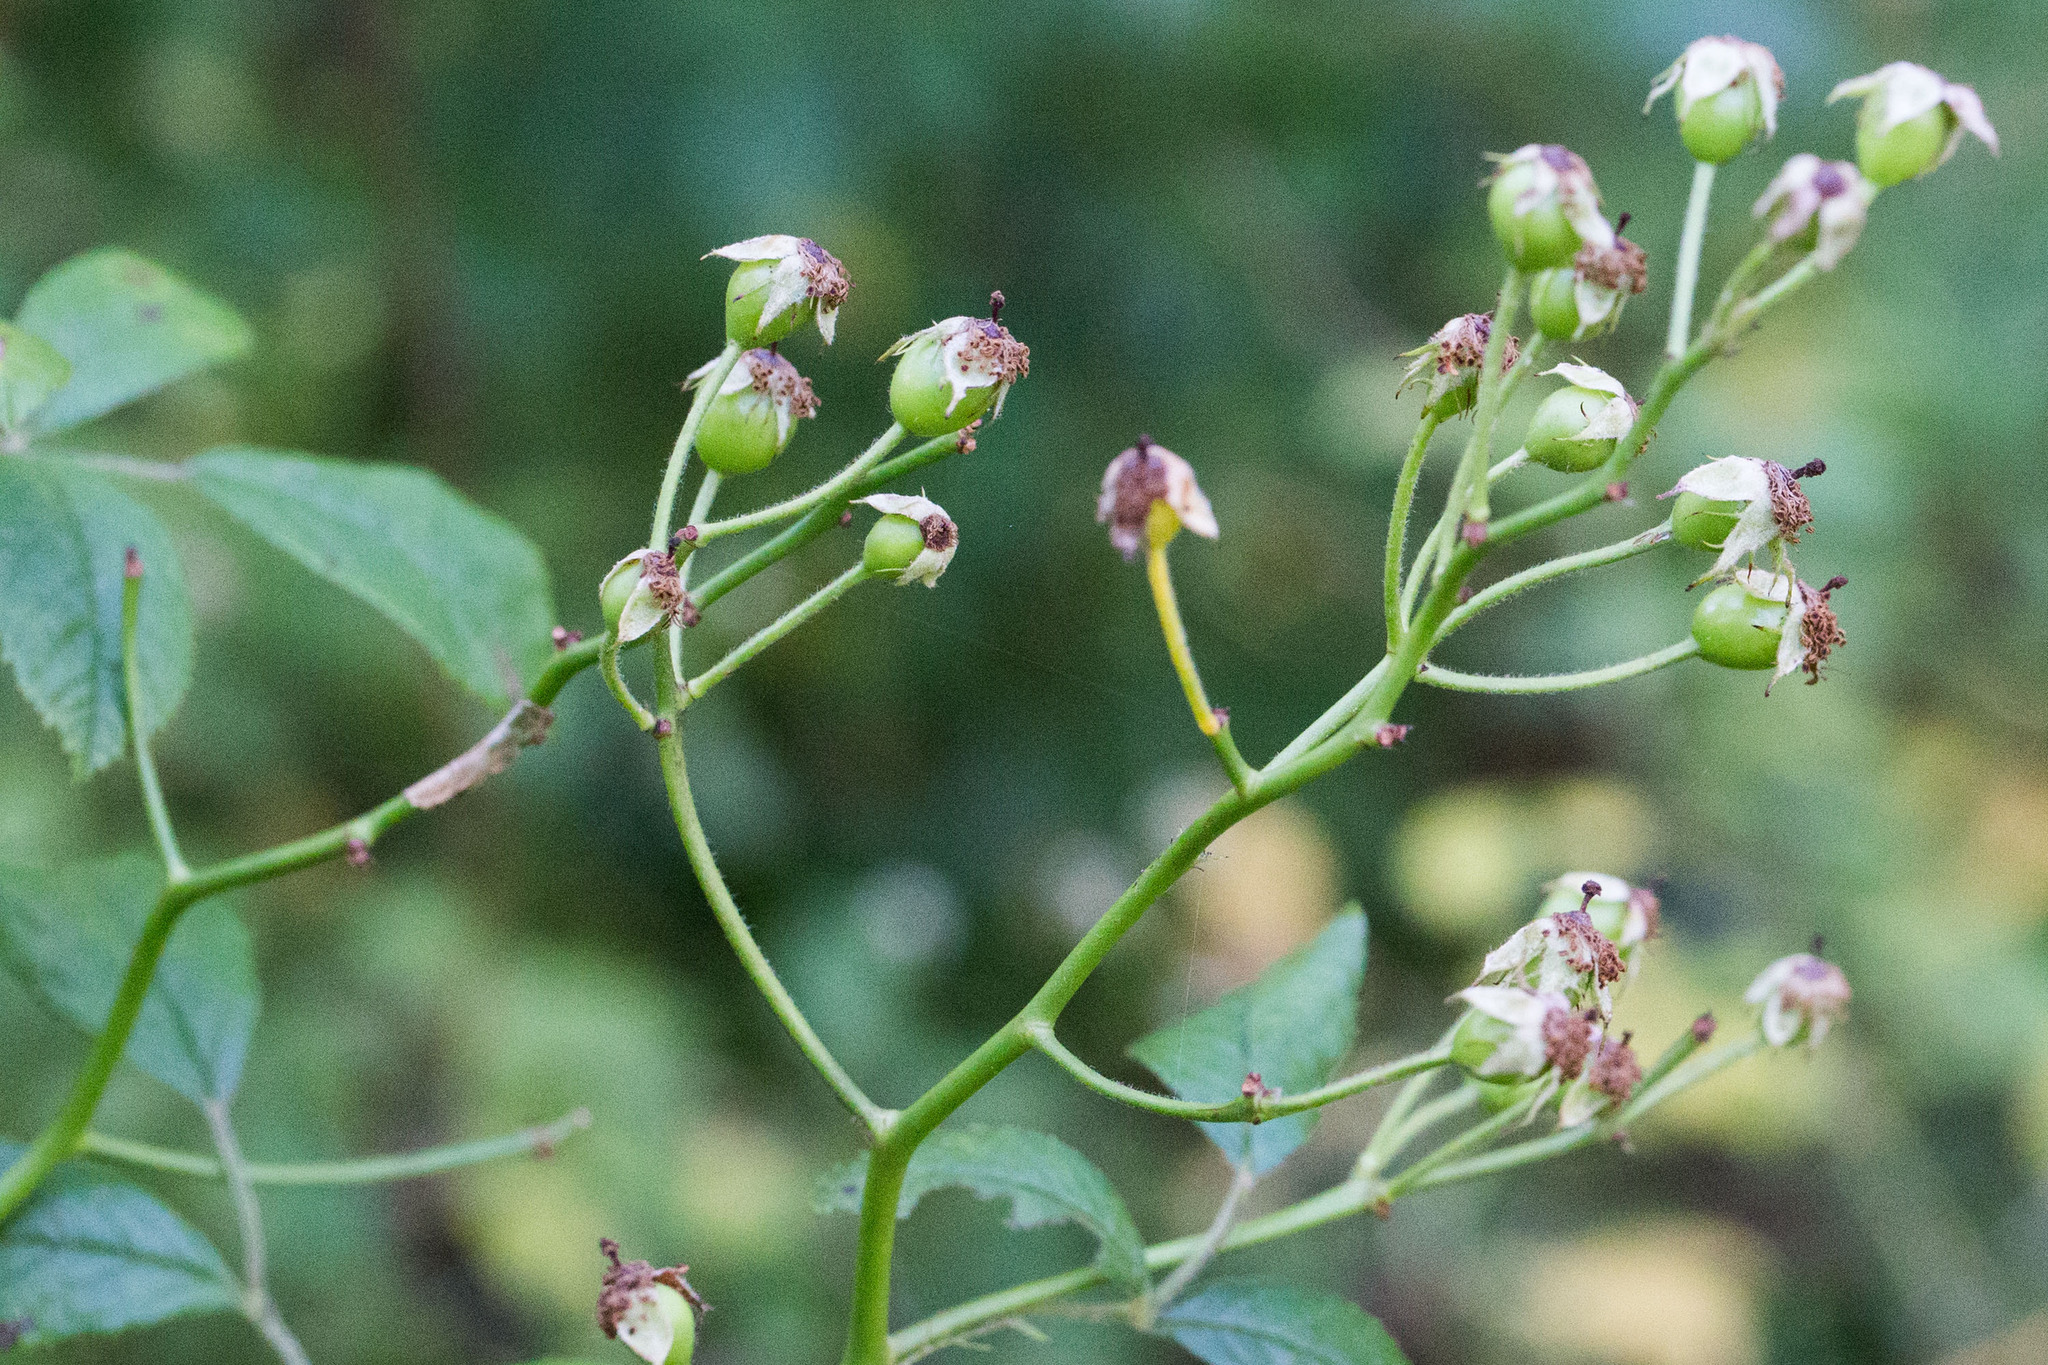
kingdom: Plantae
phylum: Tracheophyta
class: Magnoliopsida
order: Rosales
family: Rosaceae
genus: Rosa
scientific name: Rosa multiflora
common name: Multiflora rose
